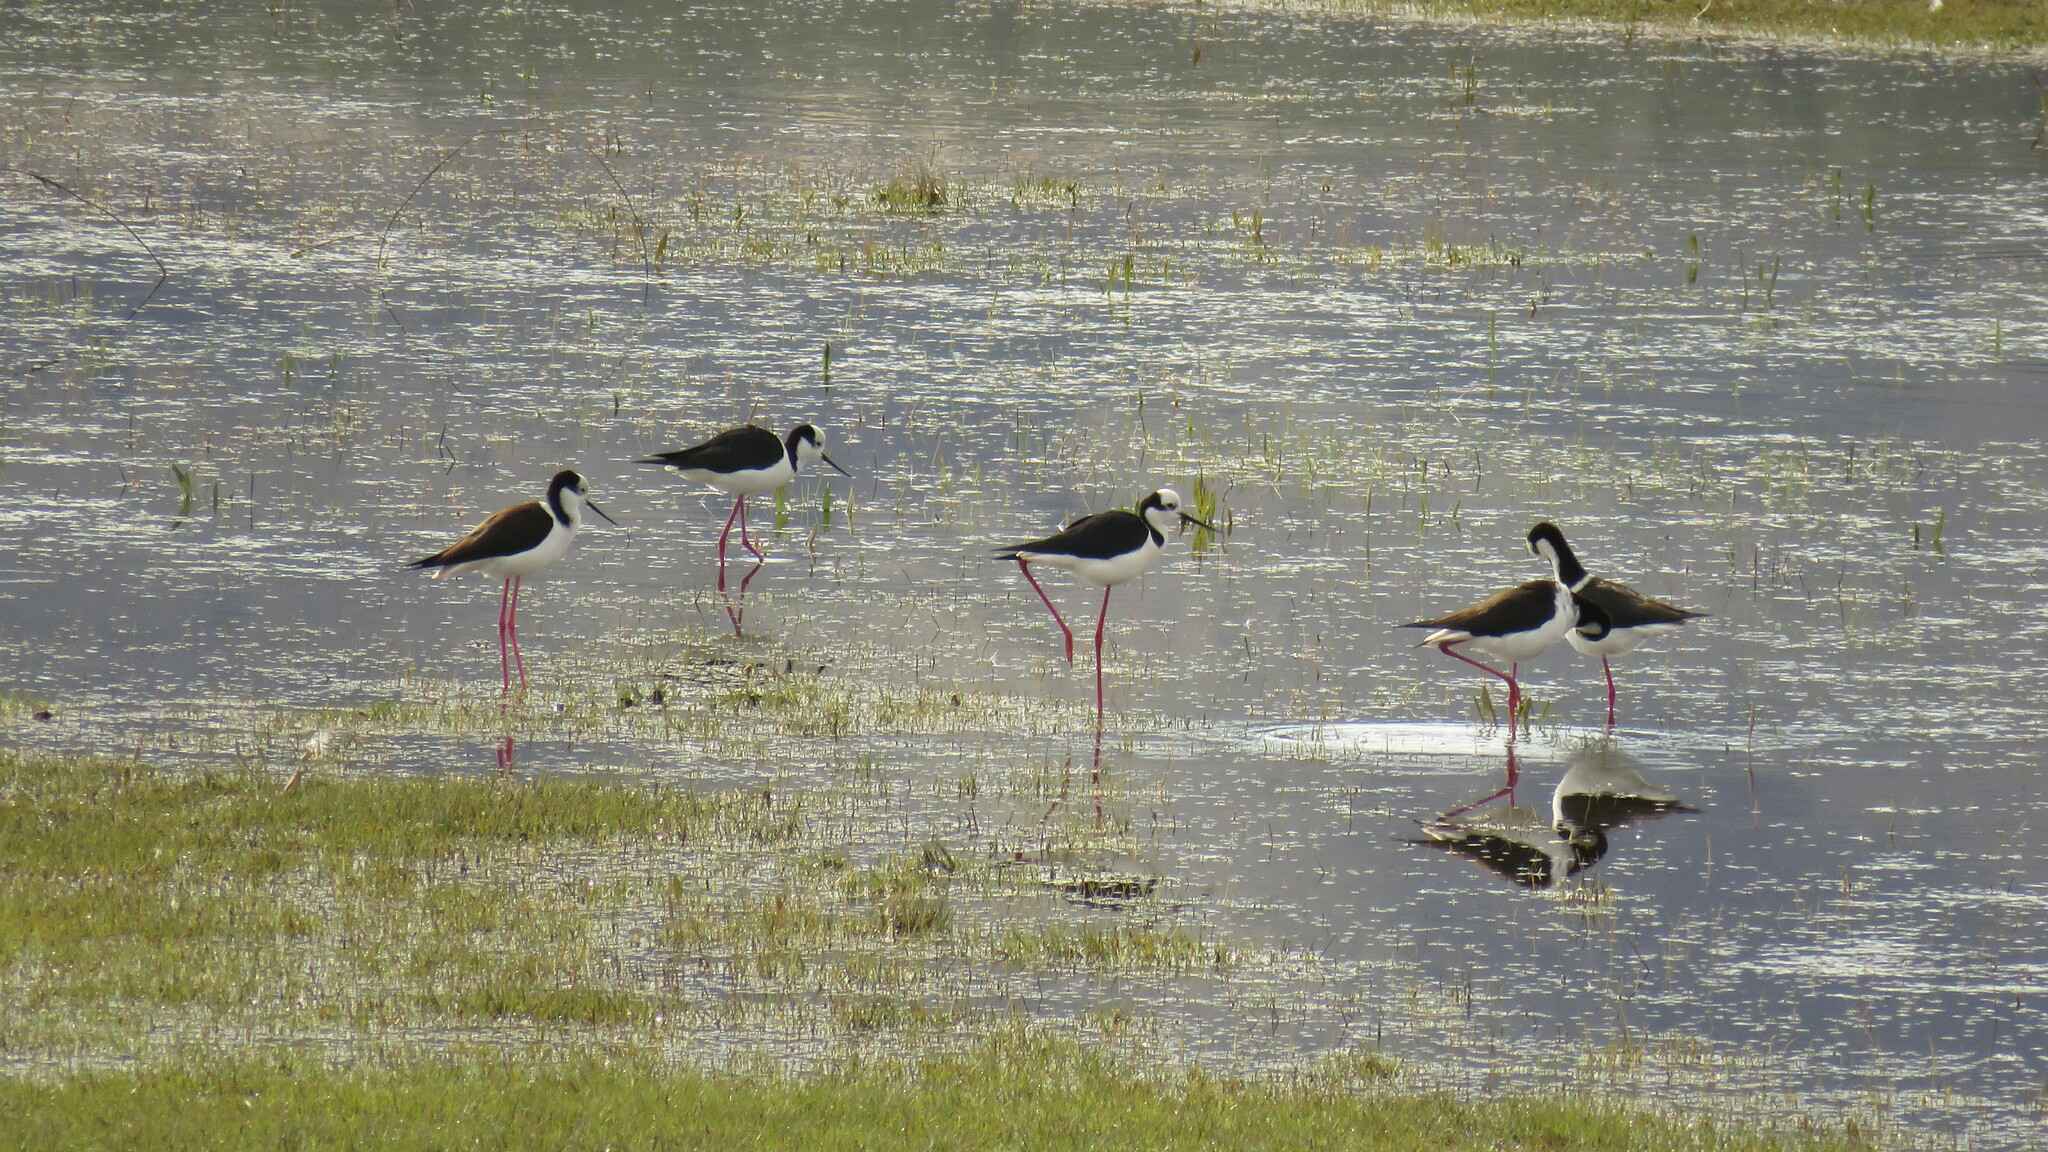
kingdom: Animalia
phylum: Chordata
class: Aves
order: Charadriiformes
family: Recurvirostridae
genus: Himantopus
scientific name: Himantopus mexicanus
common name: Black-necked stilt
